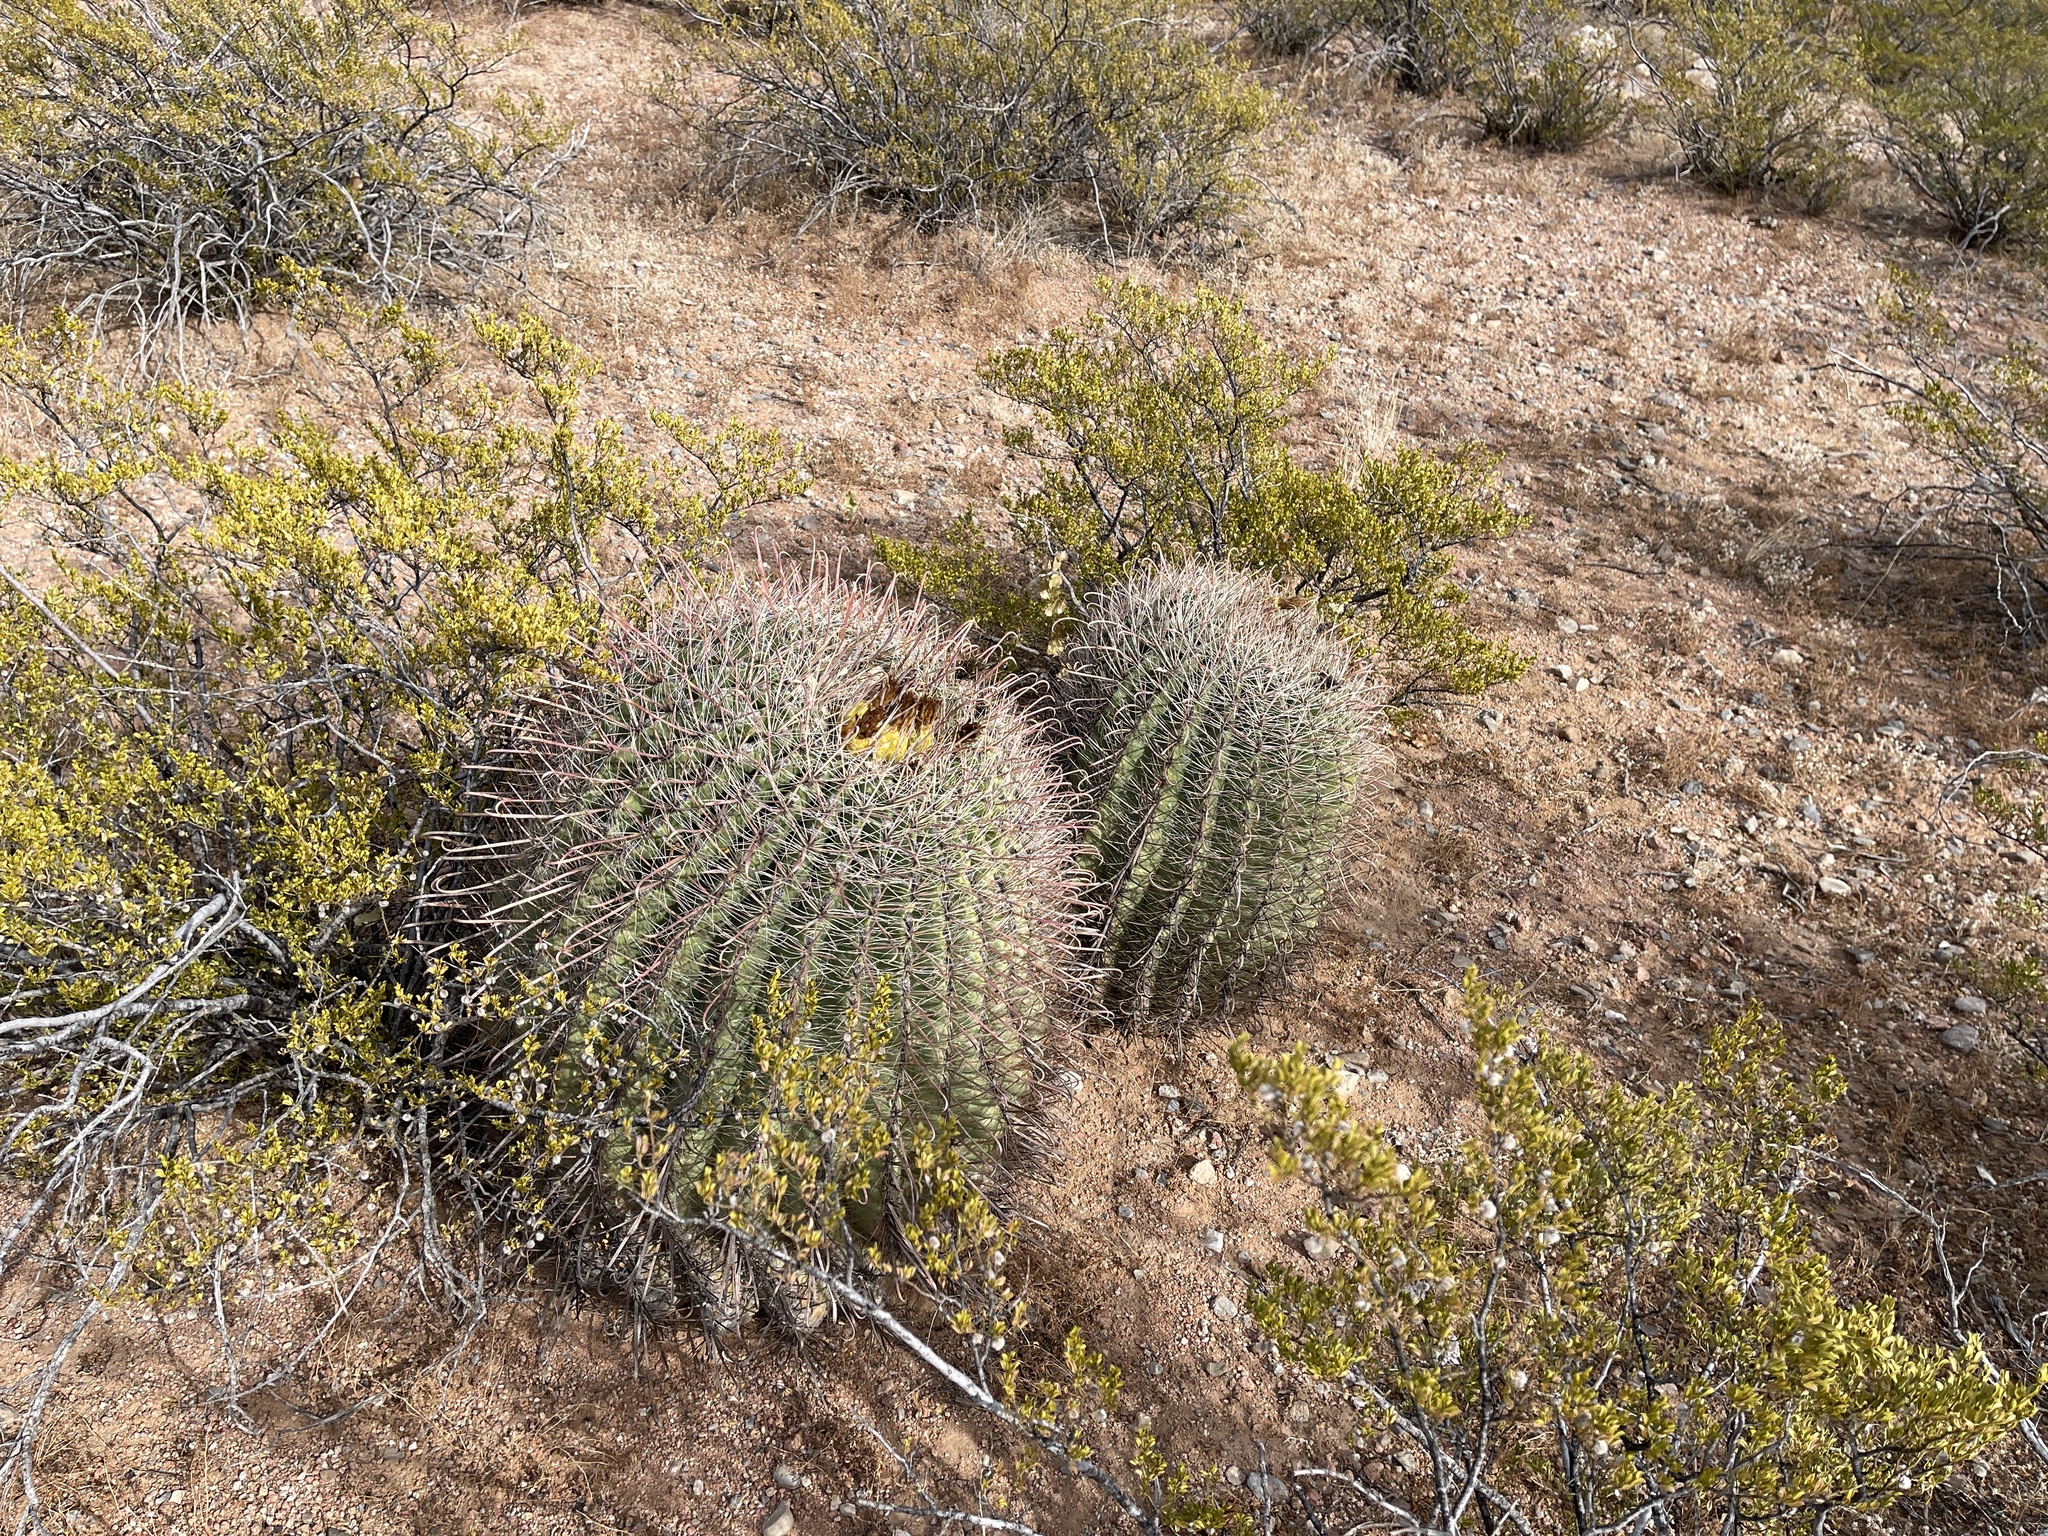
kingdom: Plantae
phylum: Tracheophyta
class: Magnoliopsida
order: Caryophyllales
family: Cactaceae
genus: Ferocactus
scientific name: Ferocactus wislizeni
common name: Candy barrel cactus
